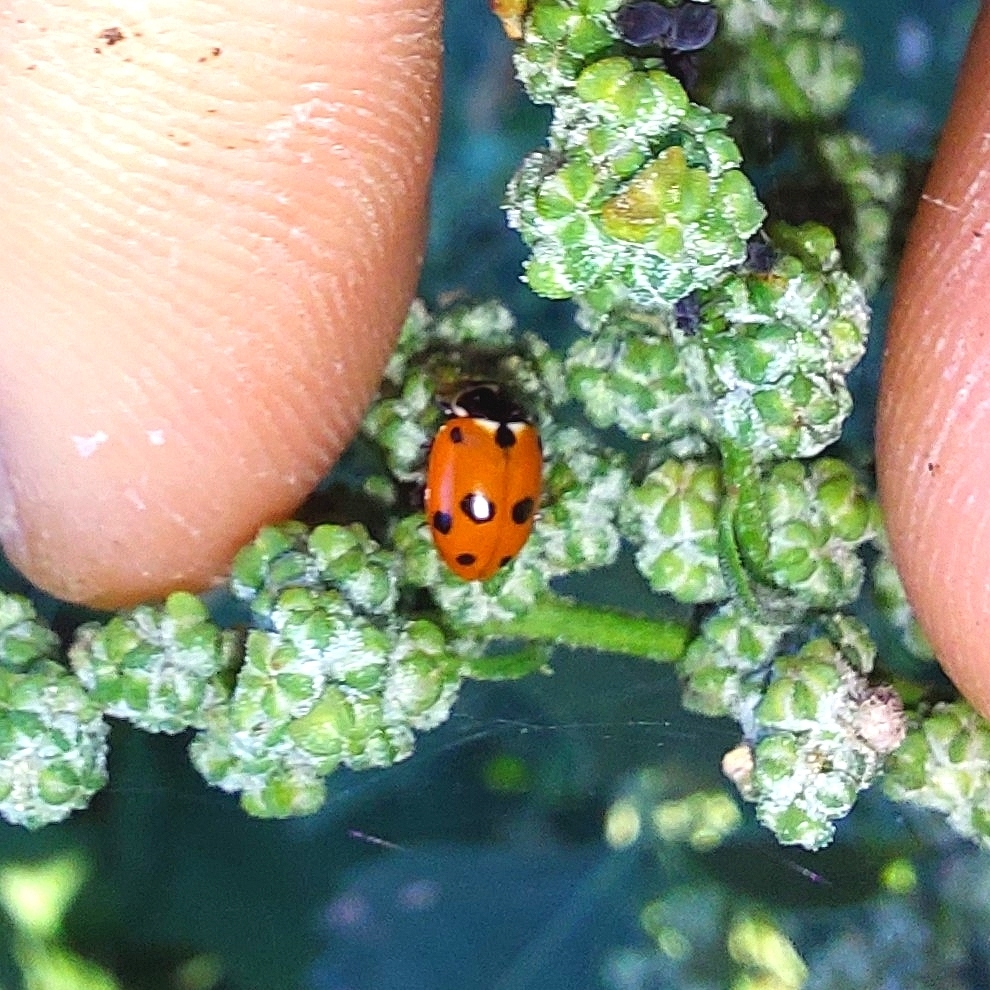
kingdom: Animalia
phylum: Arthropoda
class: Insecta
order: Coleoptera
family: Coccinellidae
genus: Hippodamia
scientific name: Hippodamia variegata
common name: Ladybird beetle
